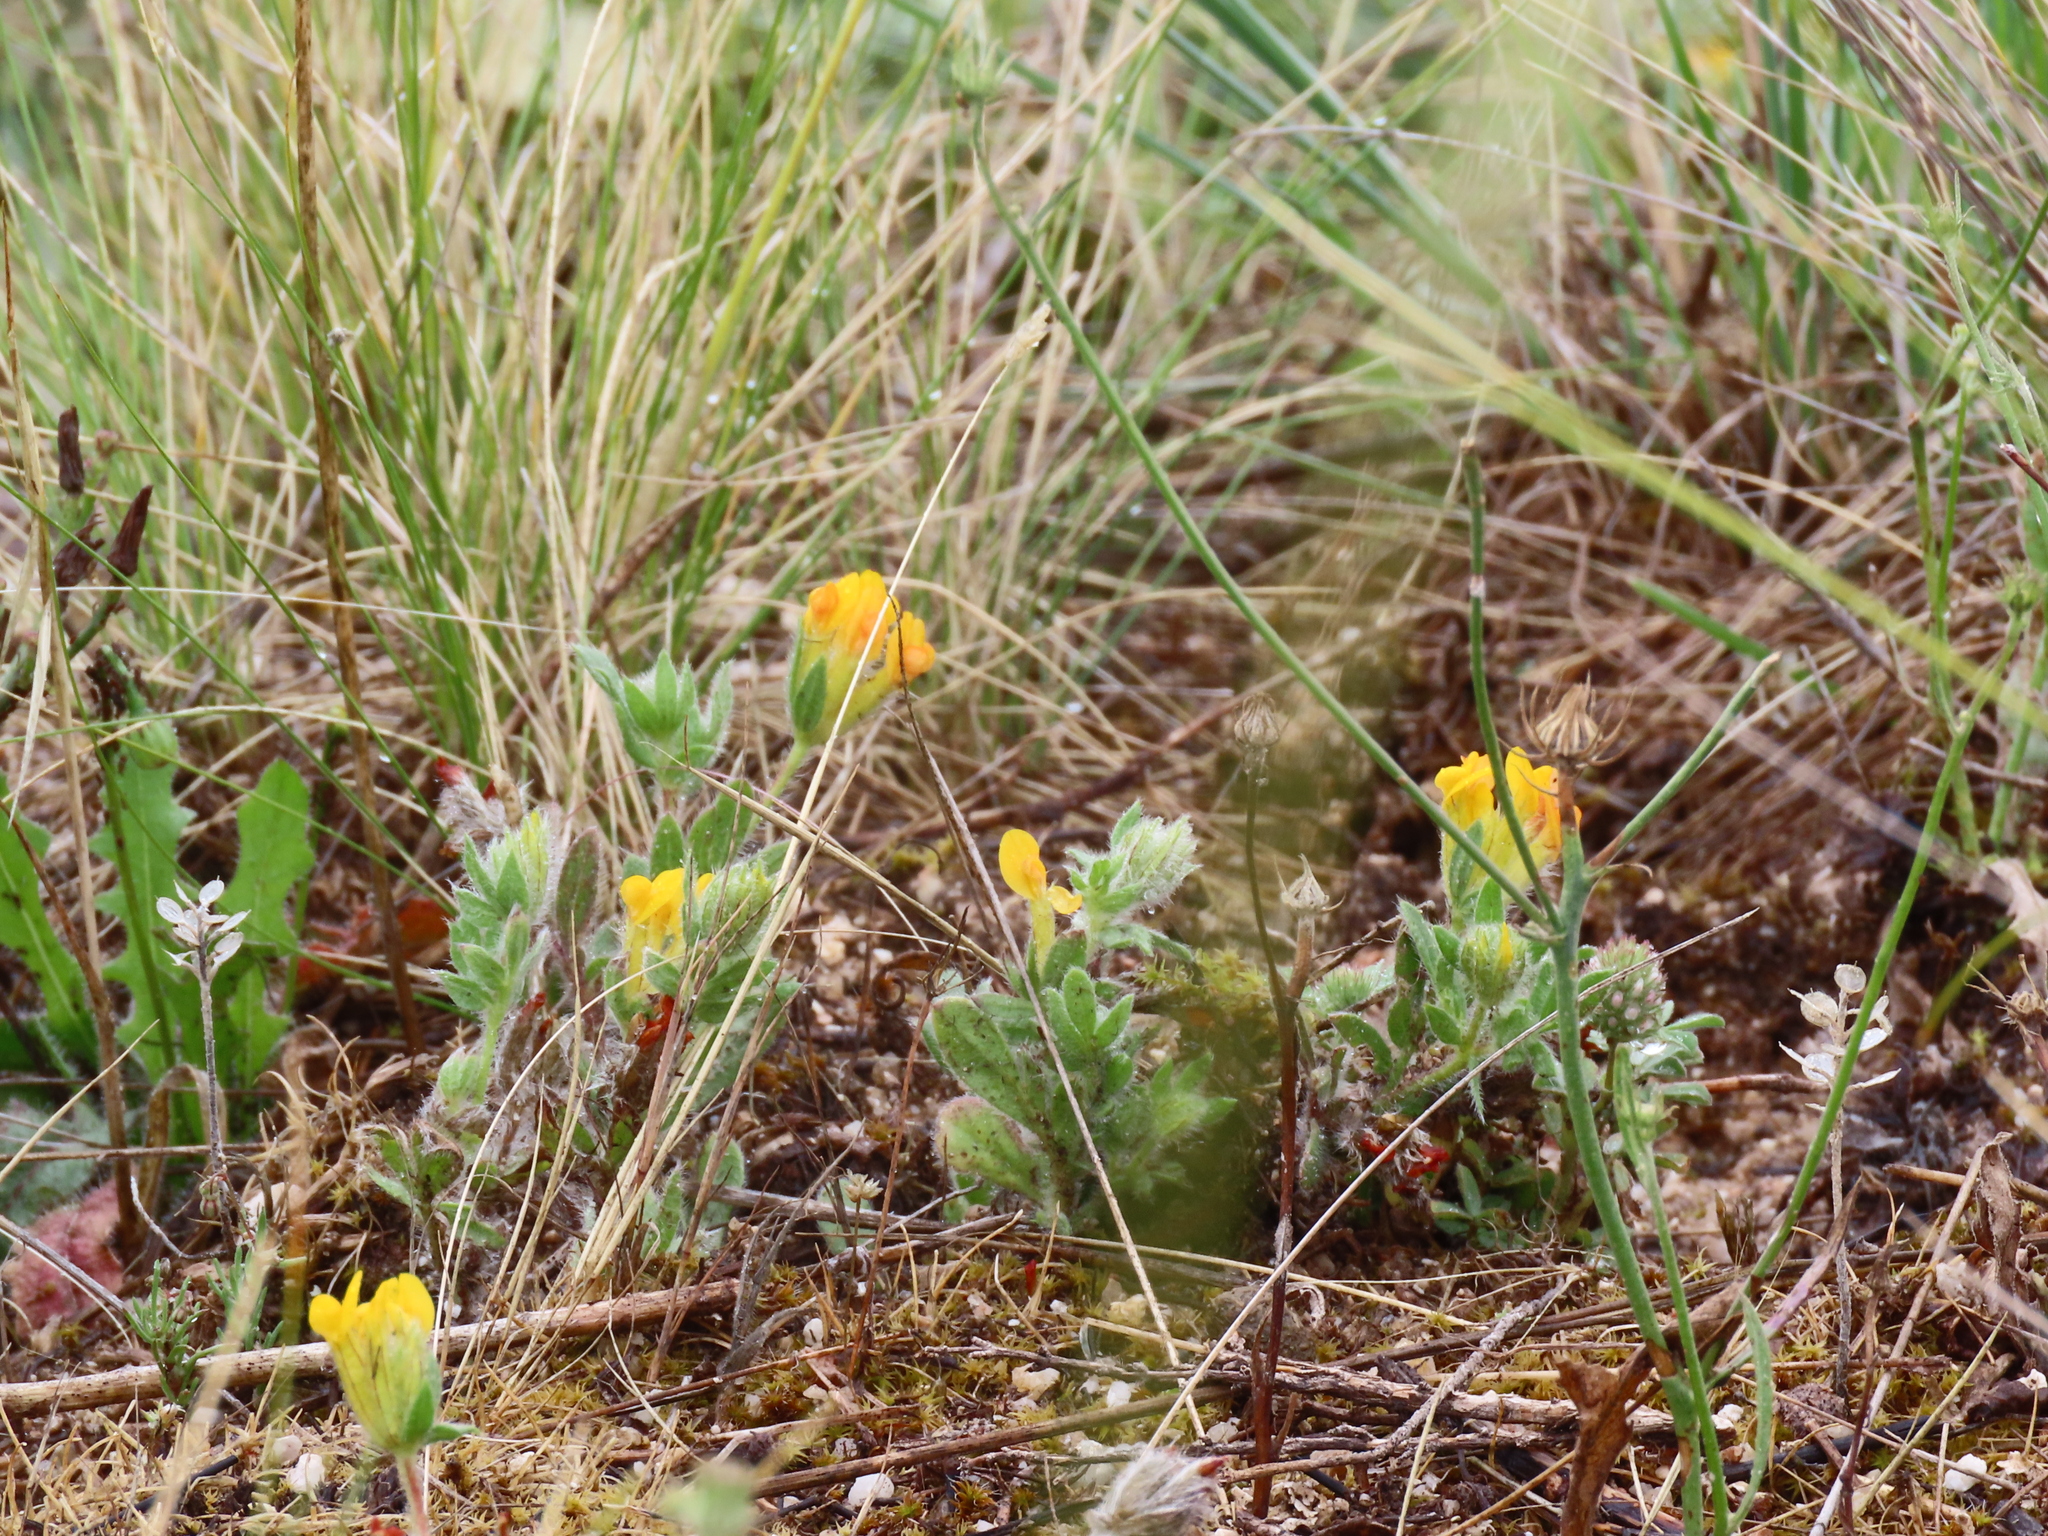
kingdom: Plantae
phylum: Tracheophyta
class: Magnoliopsida
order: Fabales
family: Fabaceae
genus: Anthyllis
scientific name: Anthyllis lotoides
